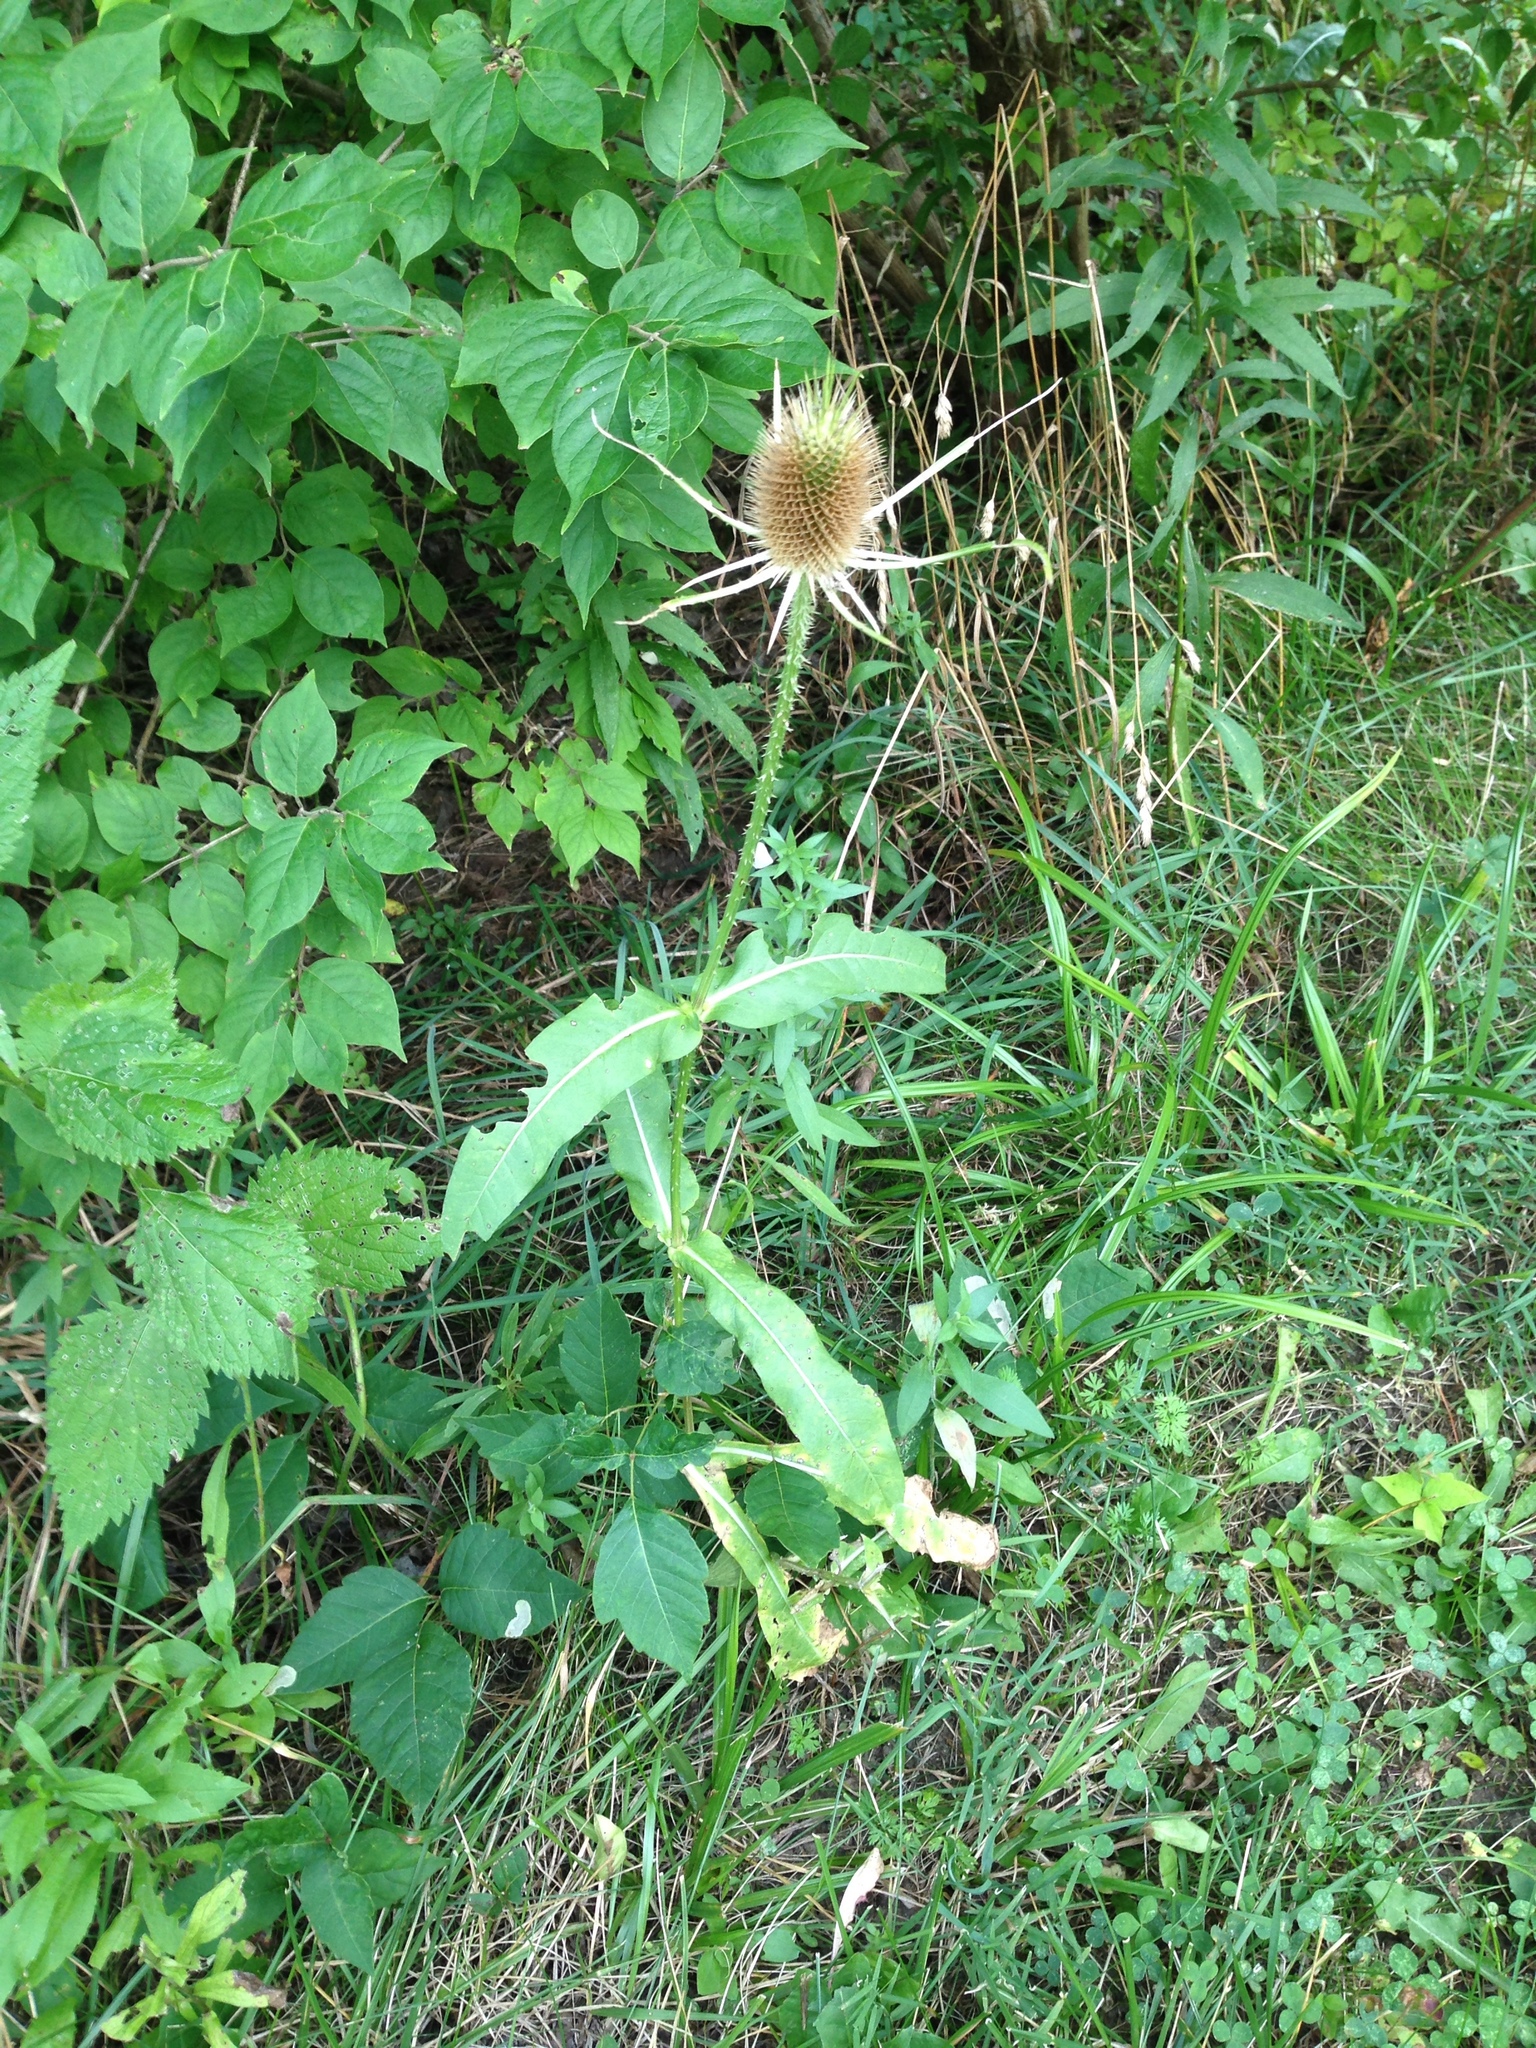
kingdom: Plantae
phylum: Tracheophyta
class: Magnoliopsida
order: Dipsacales
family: Caprifoliaceae
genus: Dipsacus
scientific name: Dipsacus fullonum
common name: Teasel
